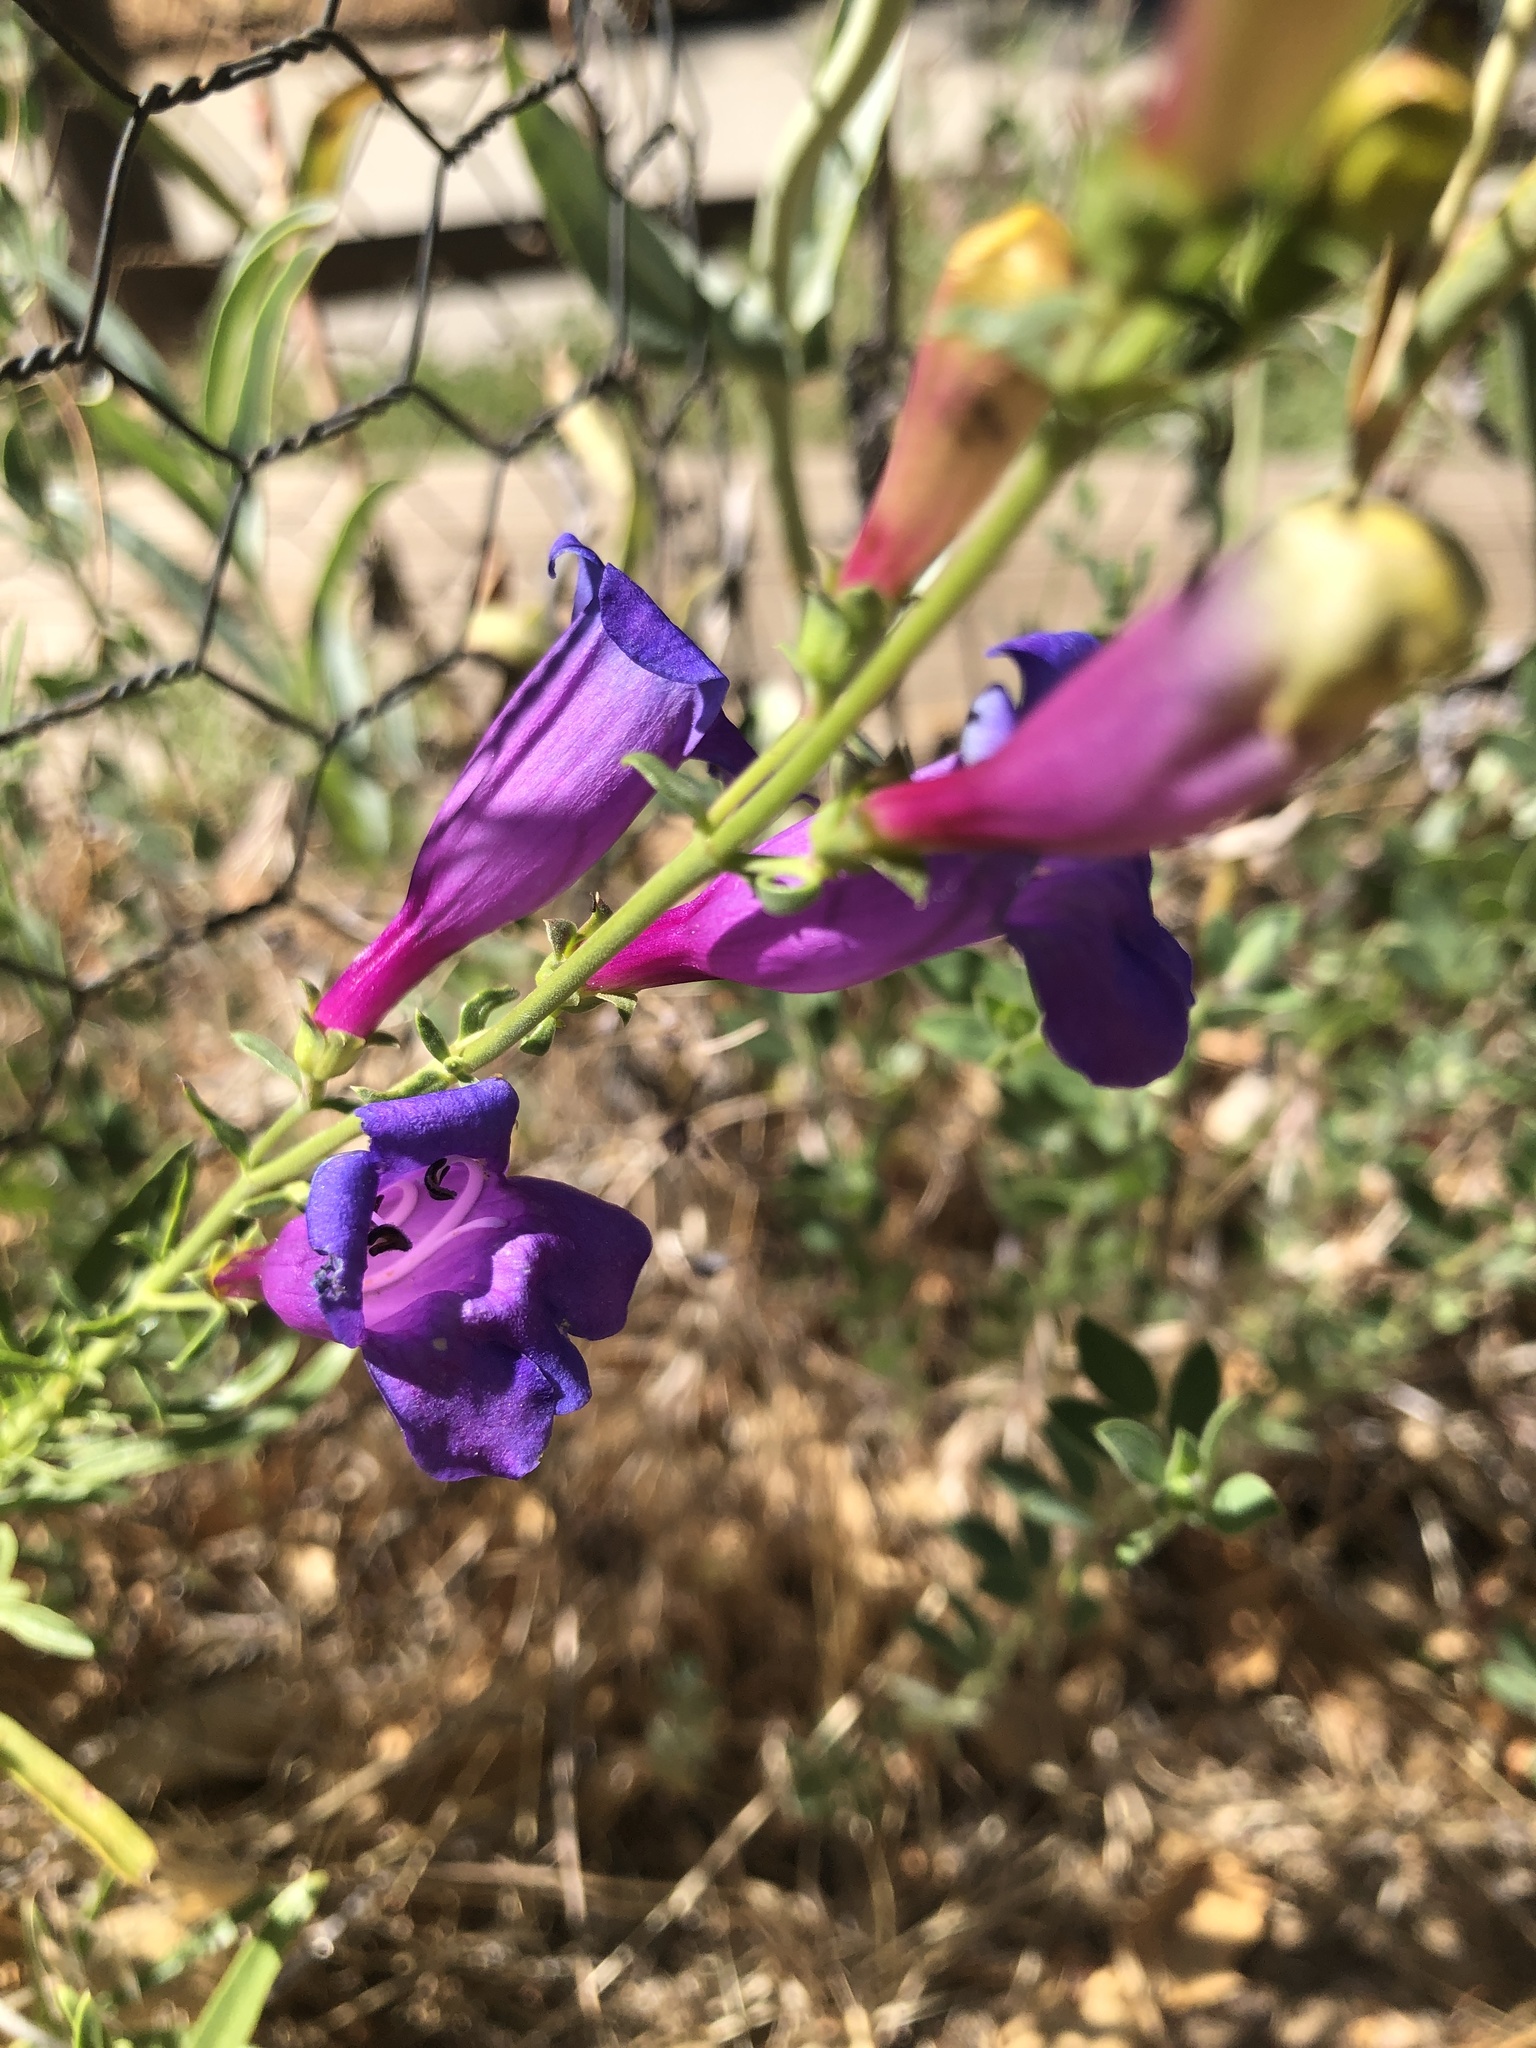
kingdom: Plantae
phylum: Tracheophyta
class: Magnoliopsida
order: Lamiales
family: Plantaginaceae
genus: Penstemon
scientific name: Penstemon heterophyllus
